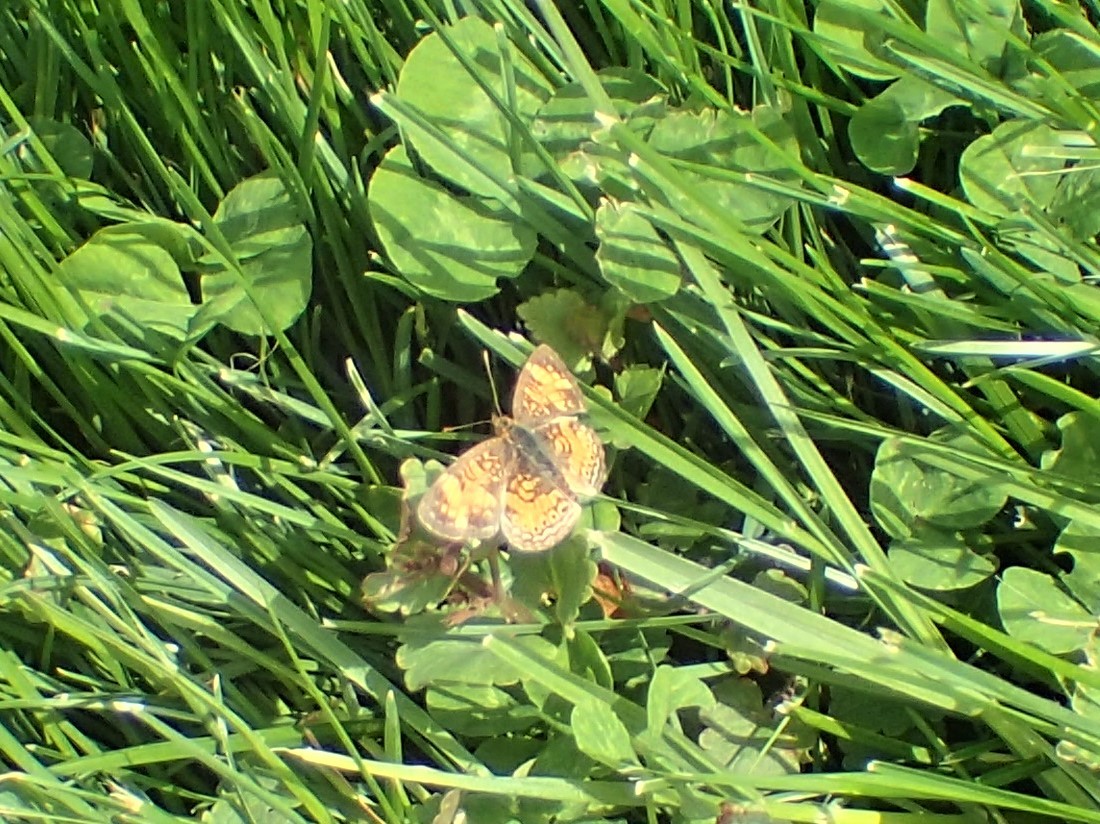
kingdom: Animalia
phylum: Arthropoda
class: Insecta
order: Lepidoptera
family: Nymphalidae
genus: Phyciodes
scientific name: Phyciodes tharos
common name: Pearl crescent
